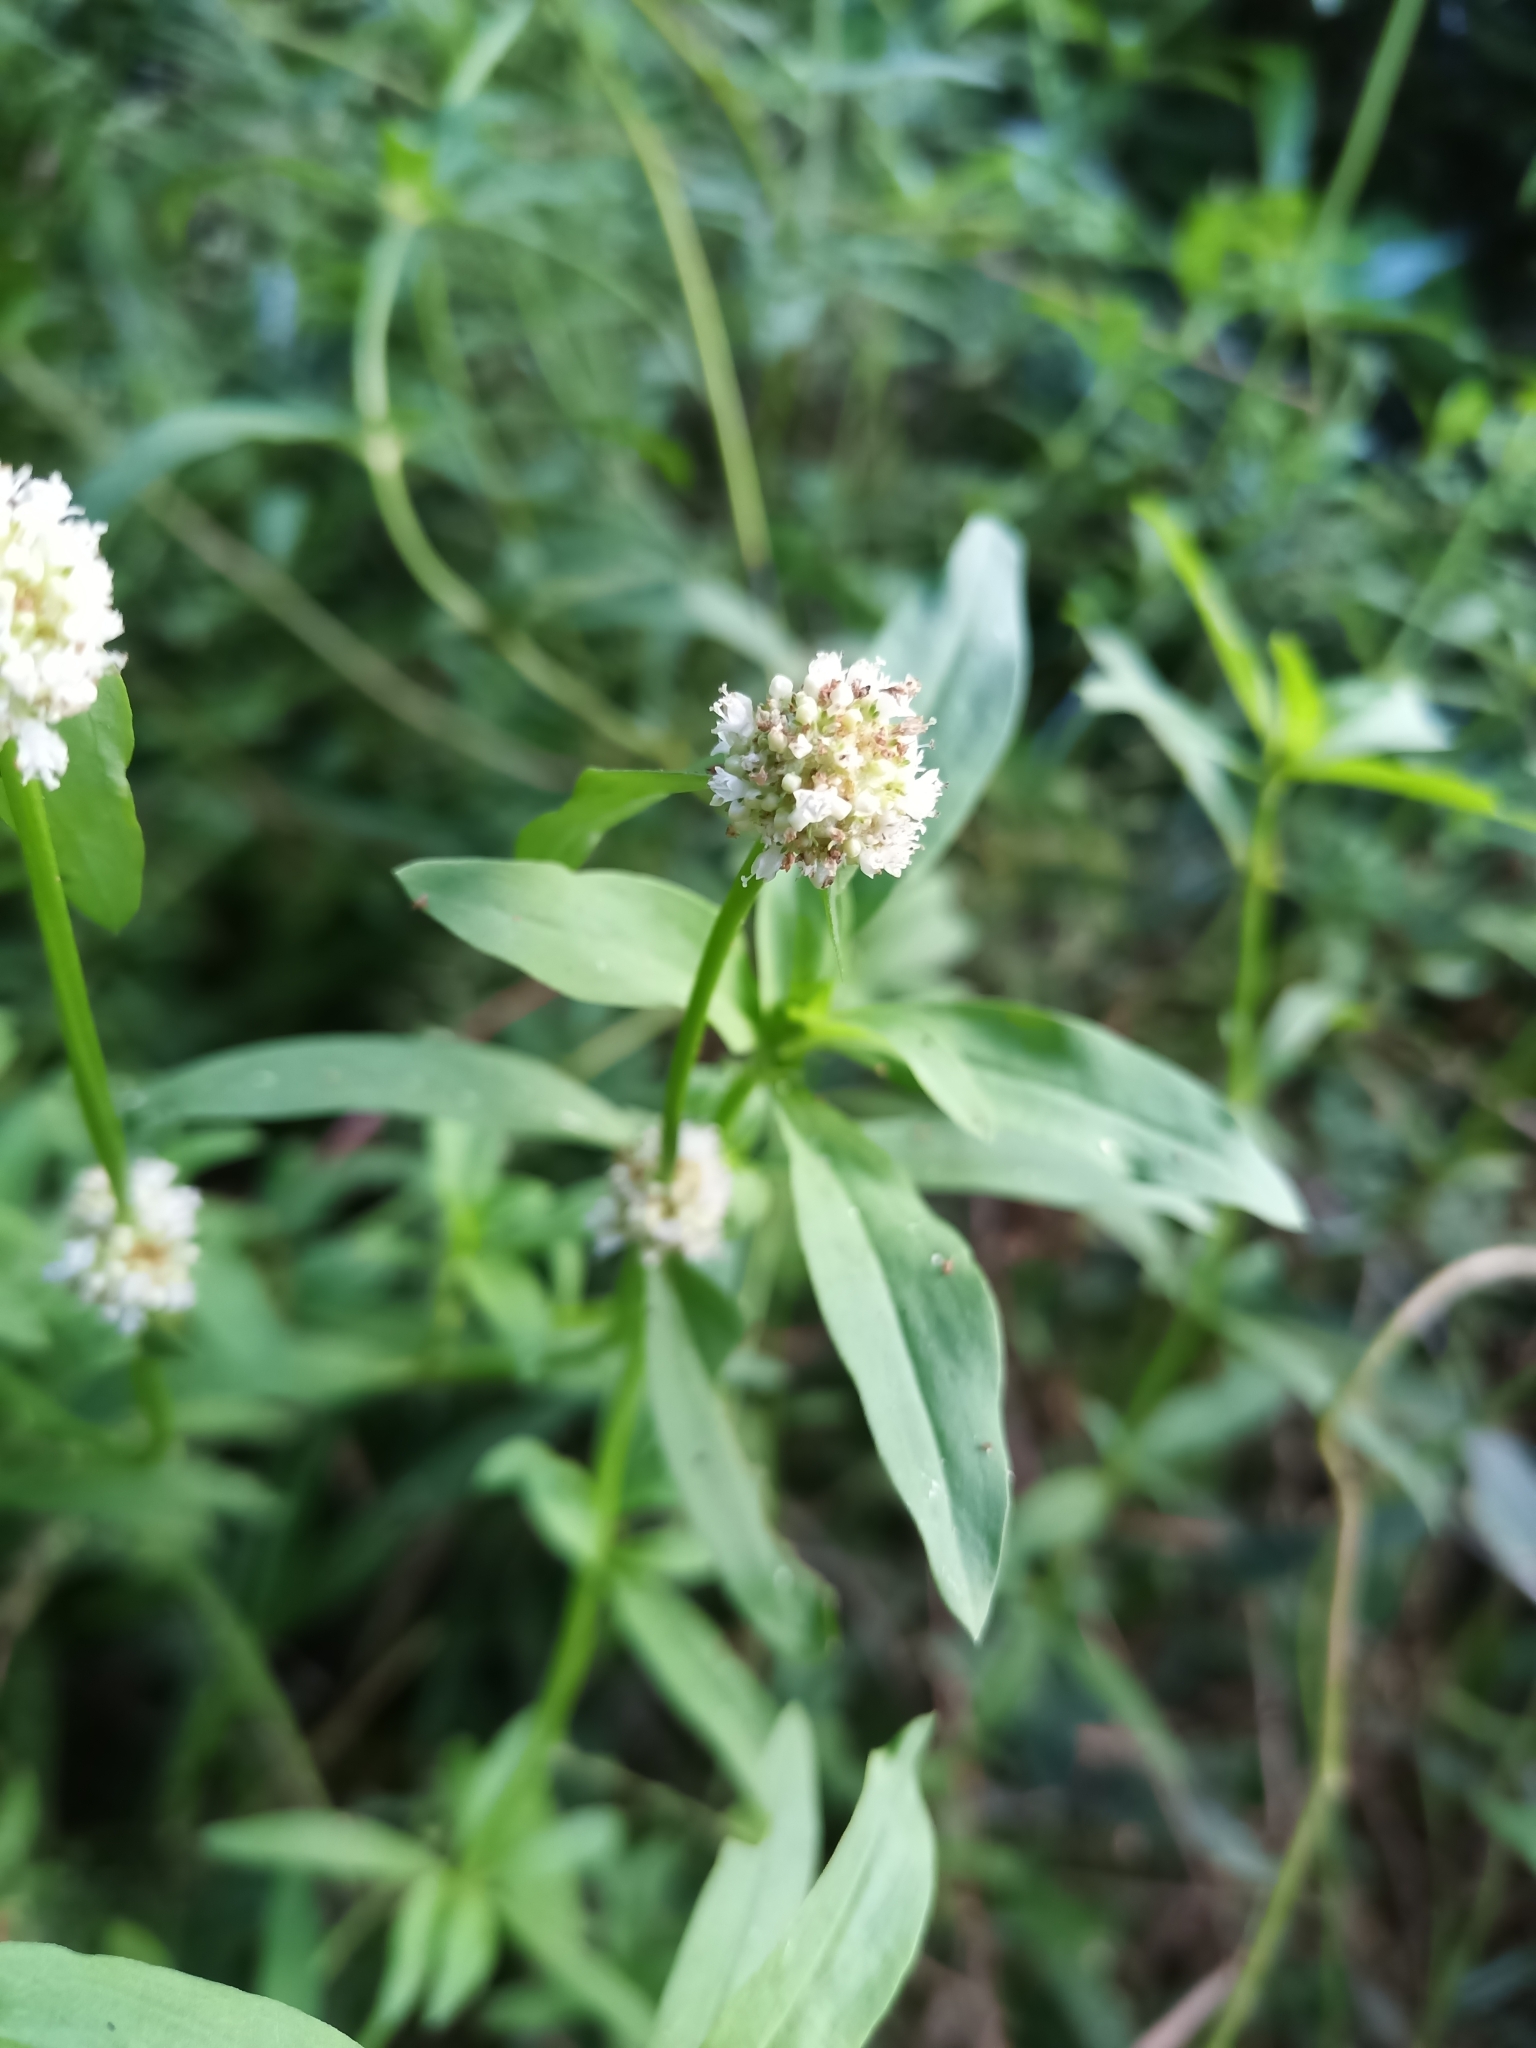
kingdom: Plantae
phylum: Tracheophyta
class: Magnoliopsida
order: Gentianales
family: Rubiaceae
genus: Spermacoce
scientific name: Spermacoce verticillata
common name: Shrubby false buttonweed
